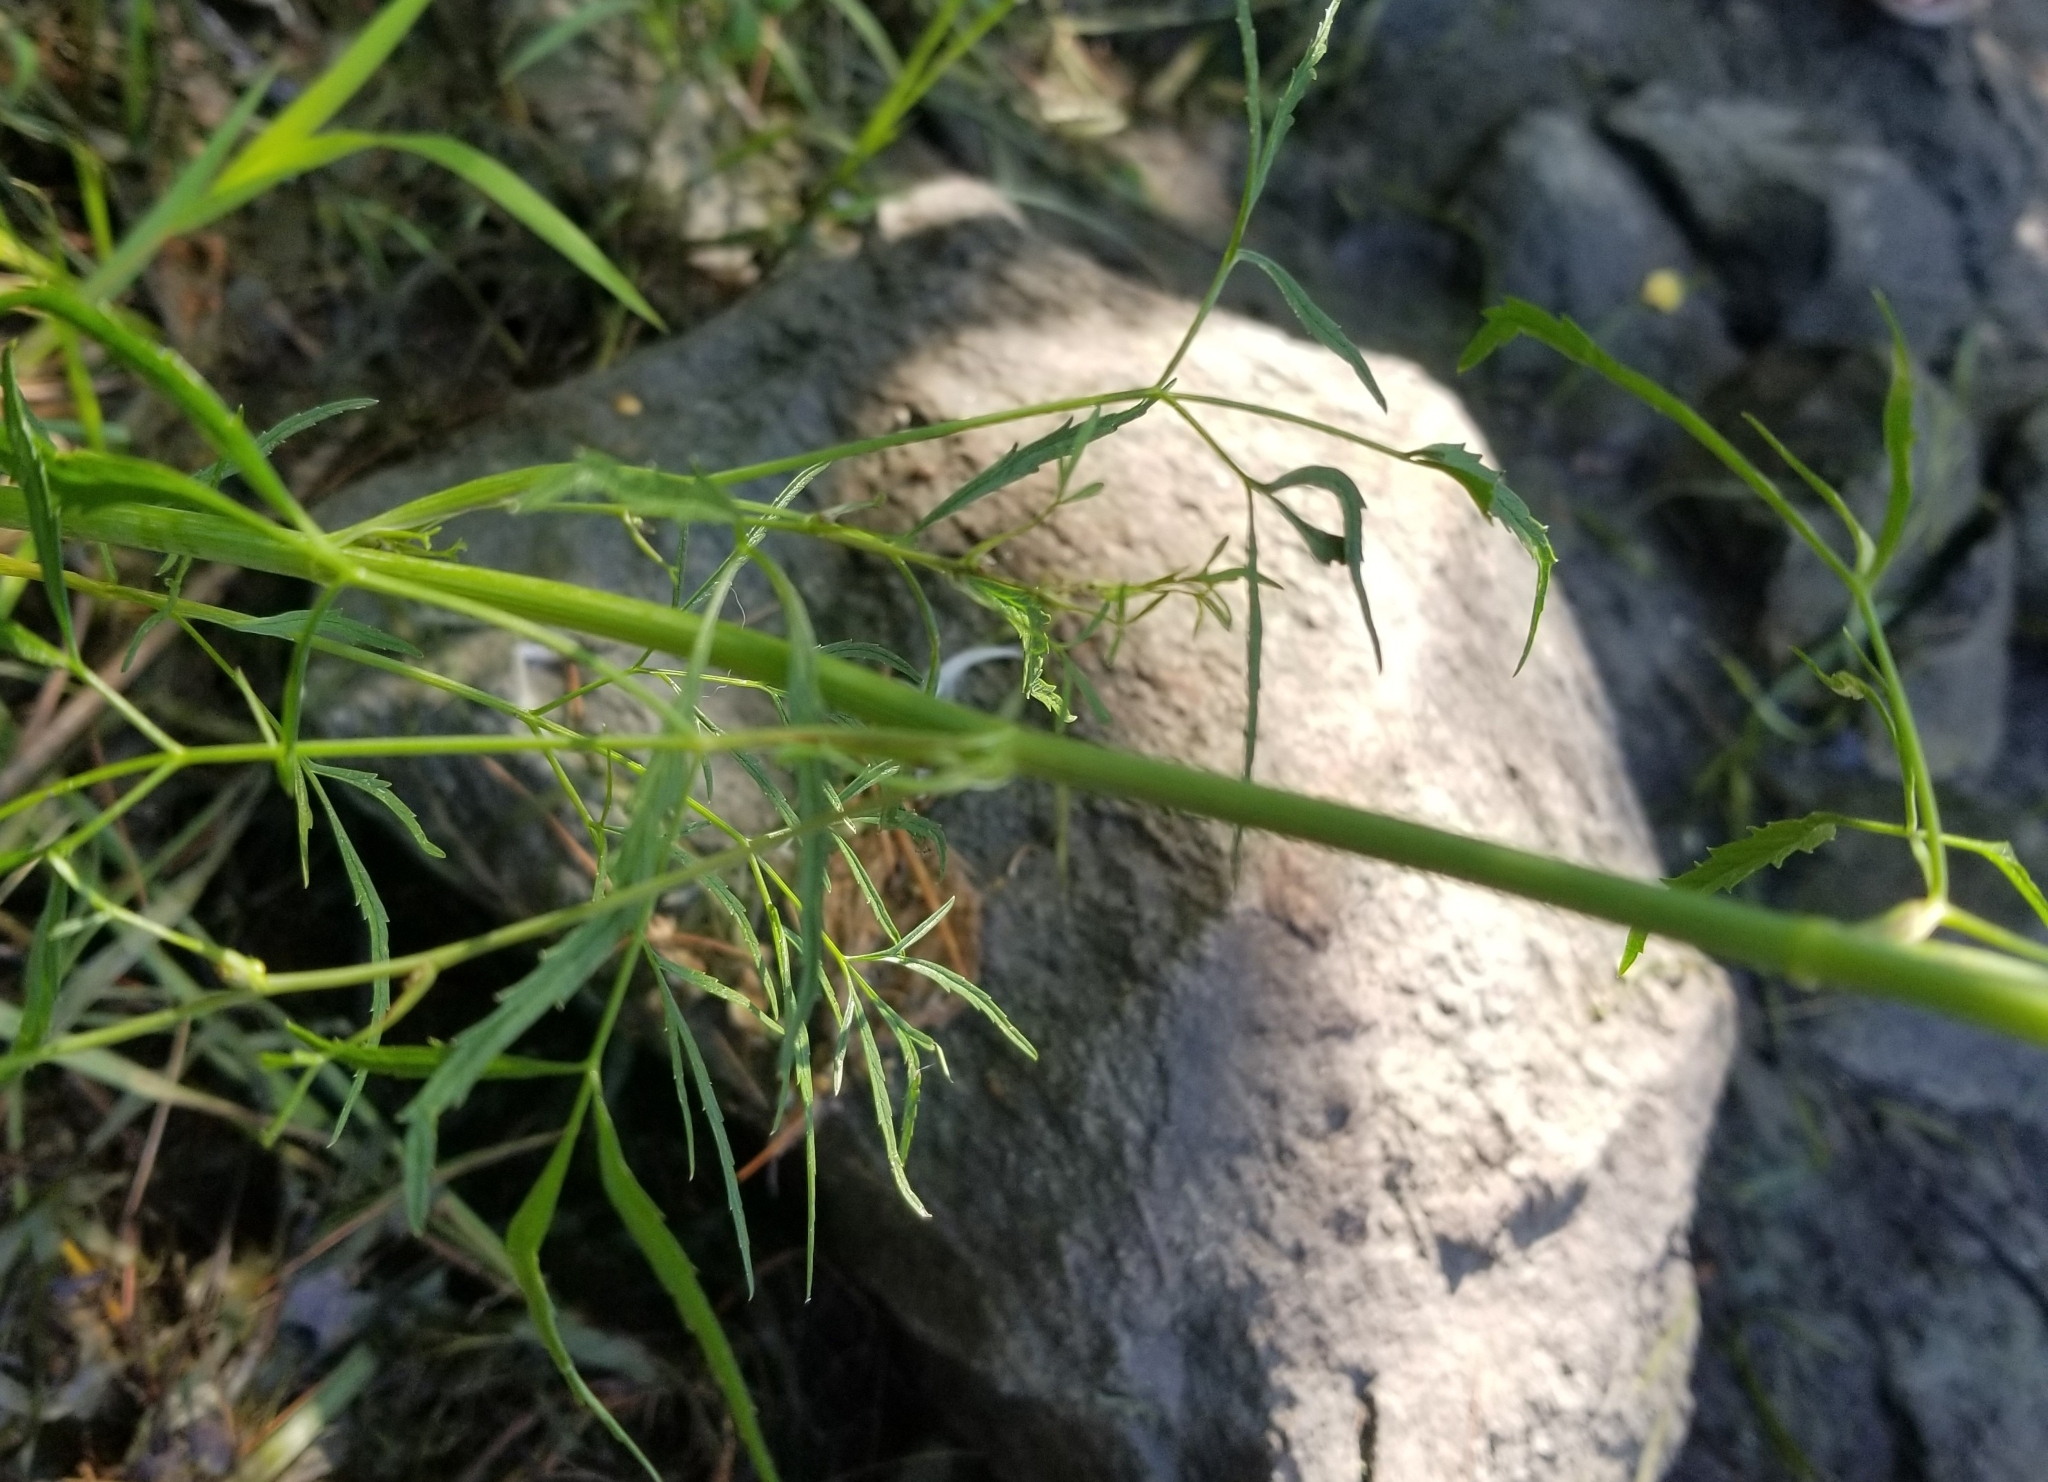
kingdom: Plantae
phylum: Tracheophyta
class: Magnoliopsida
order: Apiales
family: Apiaceae
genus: Cicuta
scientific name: Cicuta bulbifera
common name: Bulb-bearing water-hemlock
